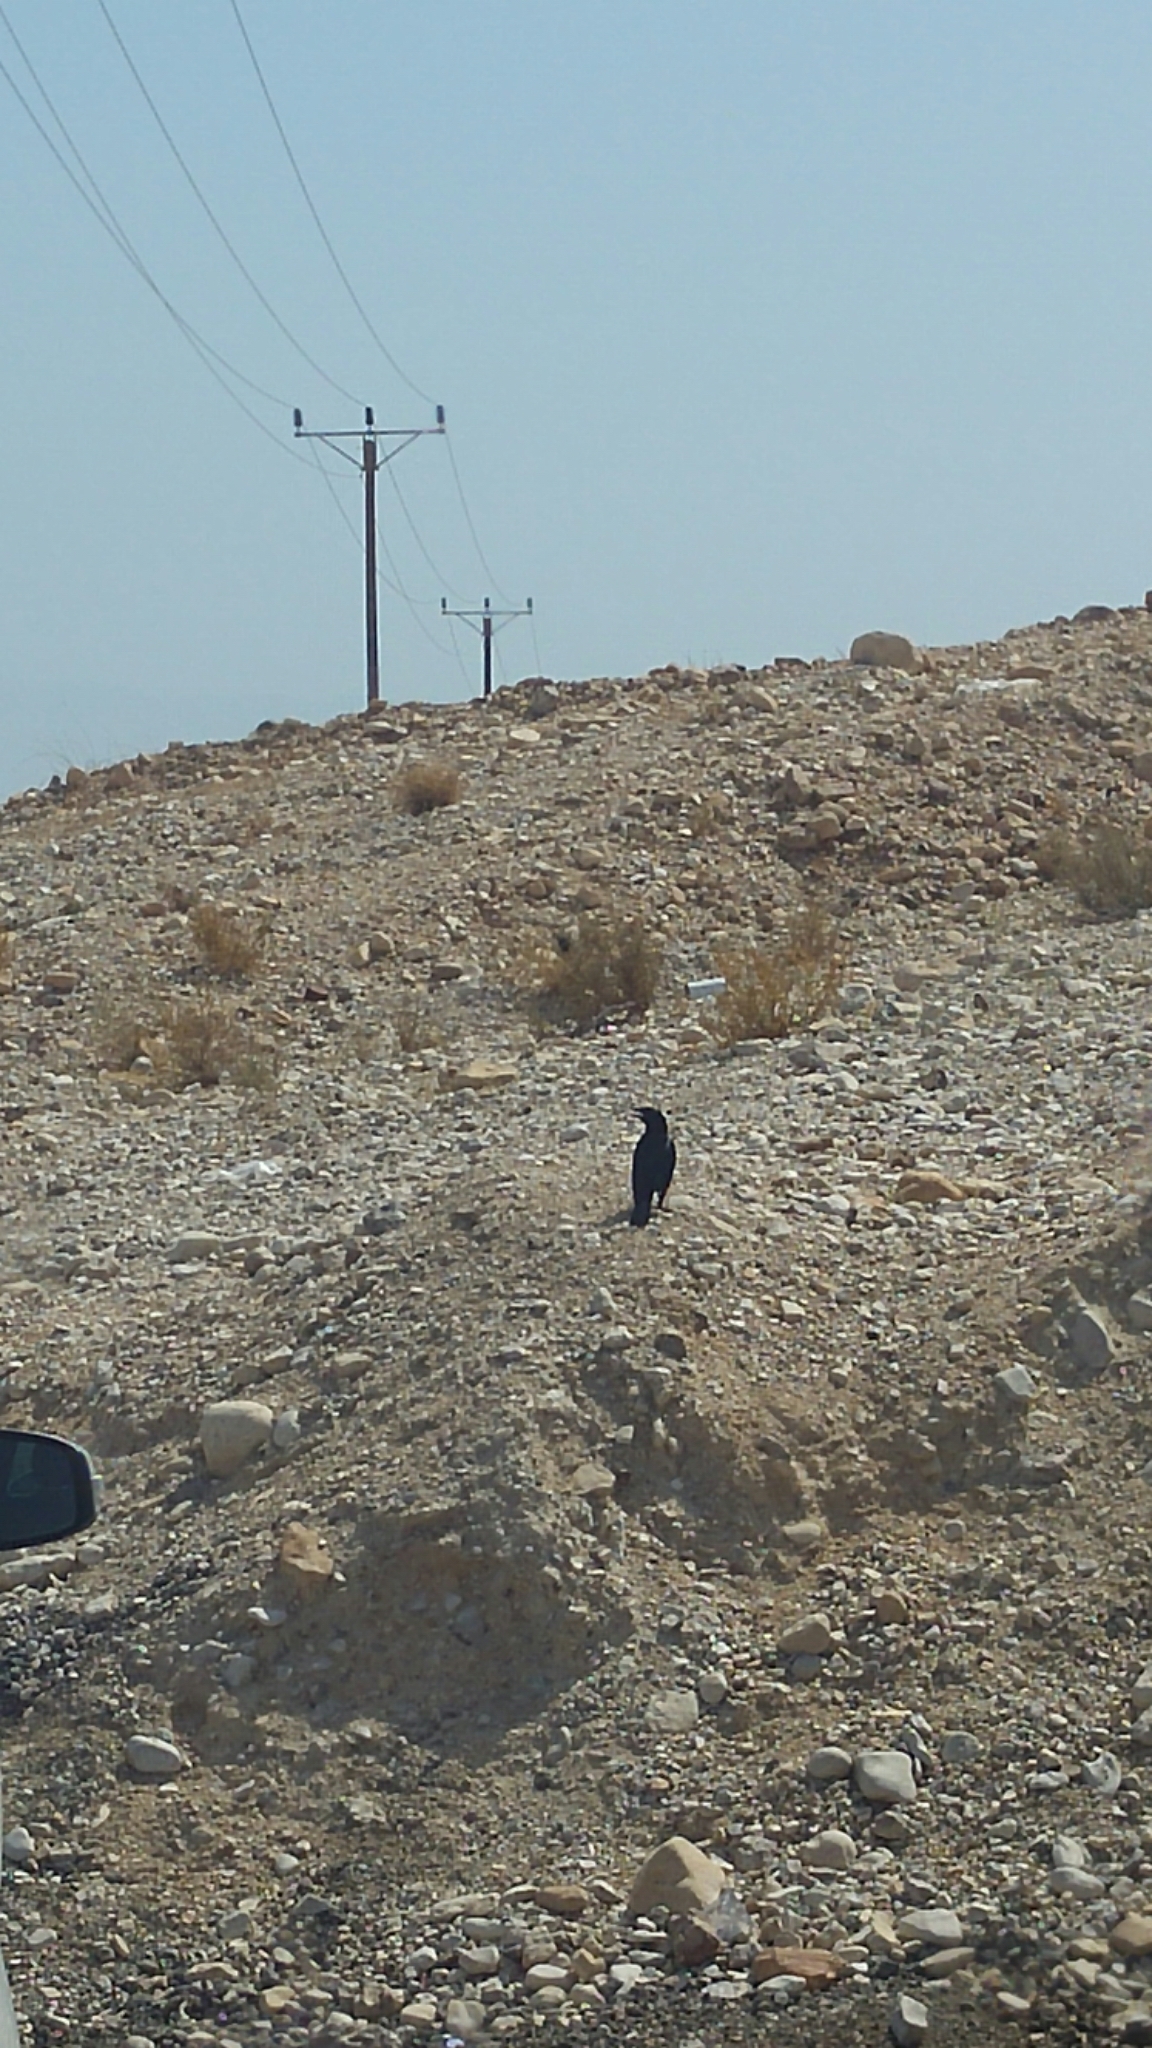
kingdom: Animalia
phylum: Chordata
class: Aves
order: Passeriformes
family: Sturnidae
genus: Onychognathus
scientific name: Onychognathus tristramii
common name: Tristram's starling
